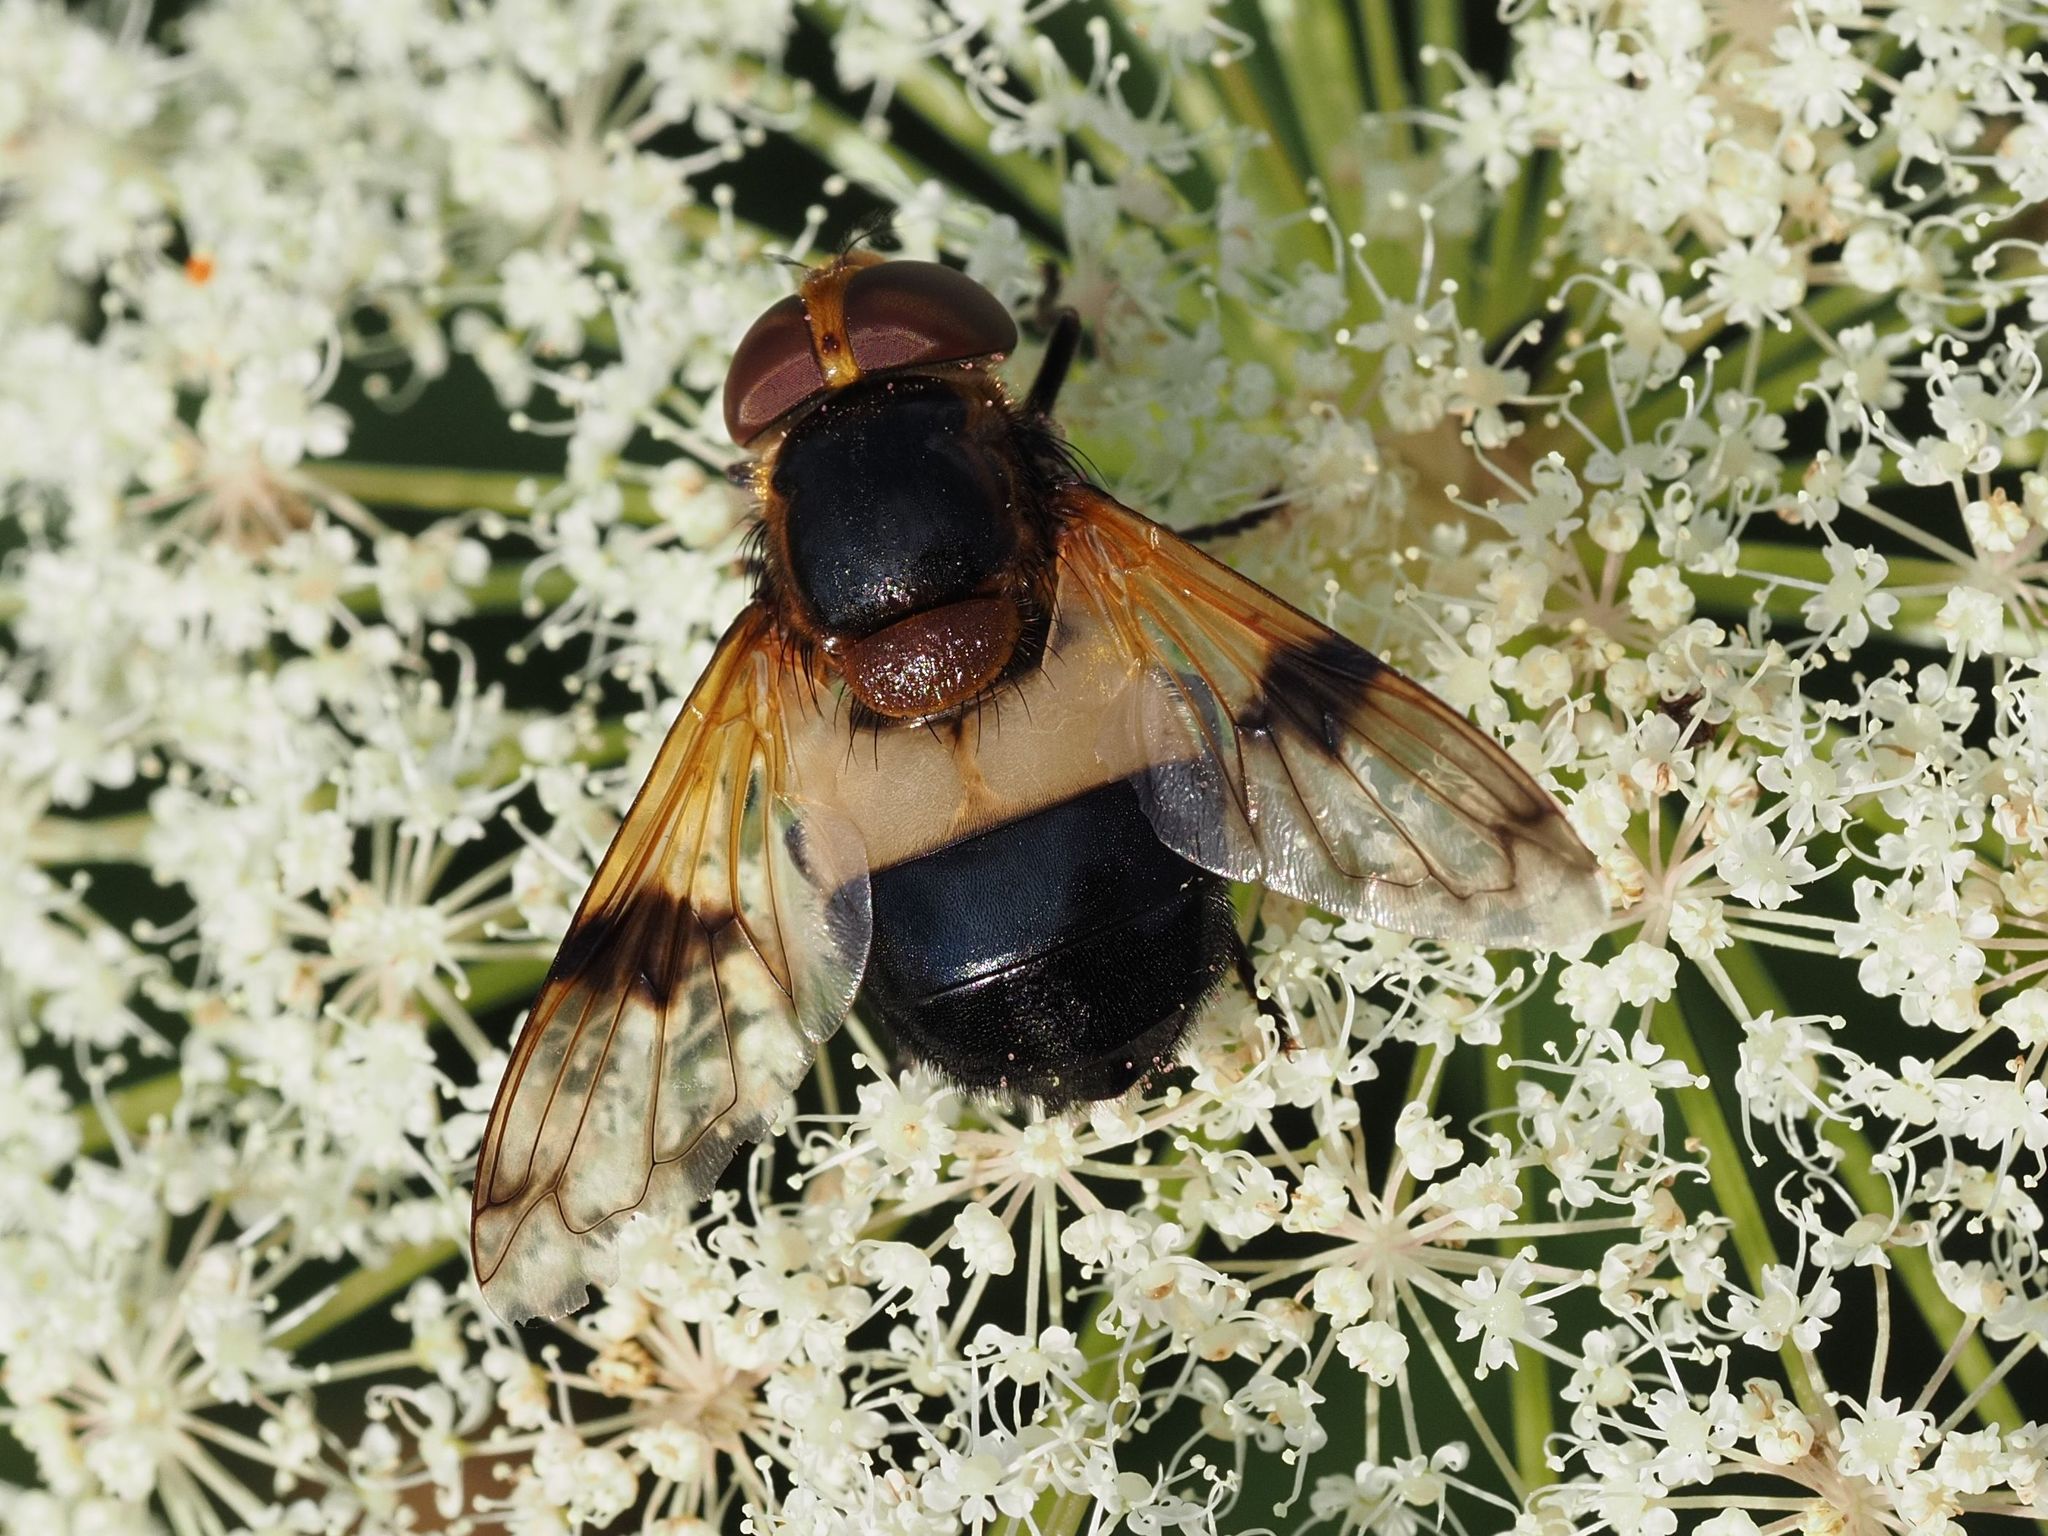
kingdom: Animalia
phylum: Arthropoda
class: Insecta
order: Diptera
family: Syrphidae
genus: Volucella
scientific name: Volucella pellucens
